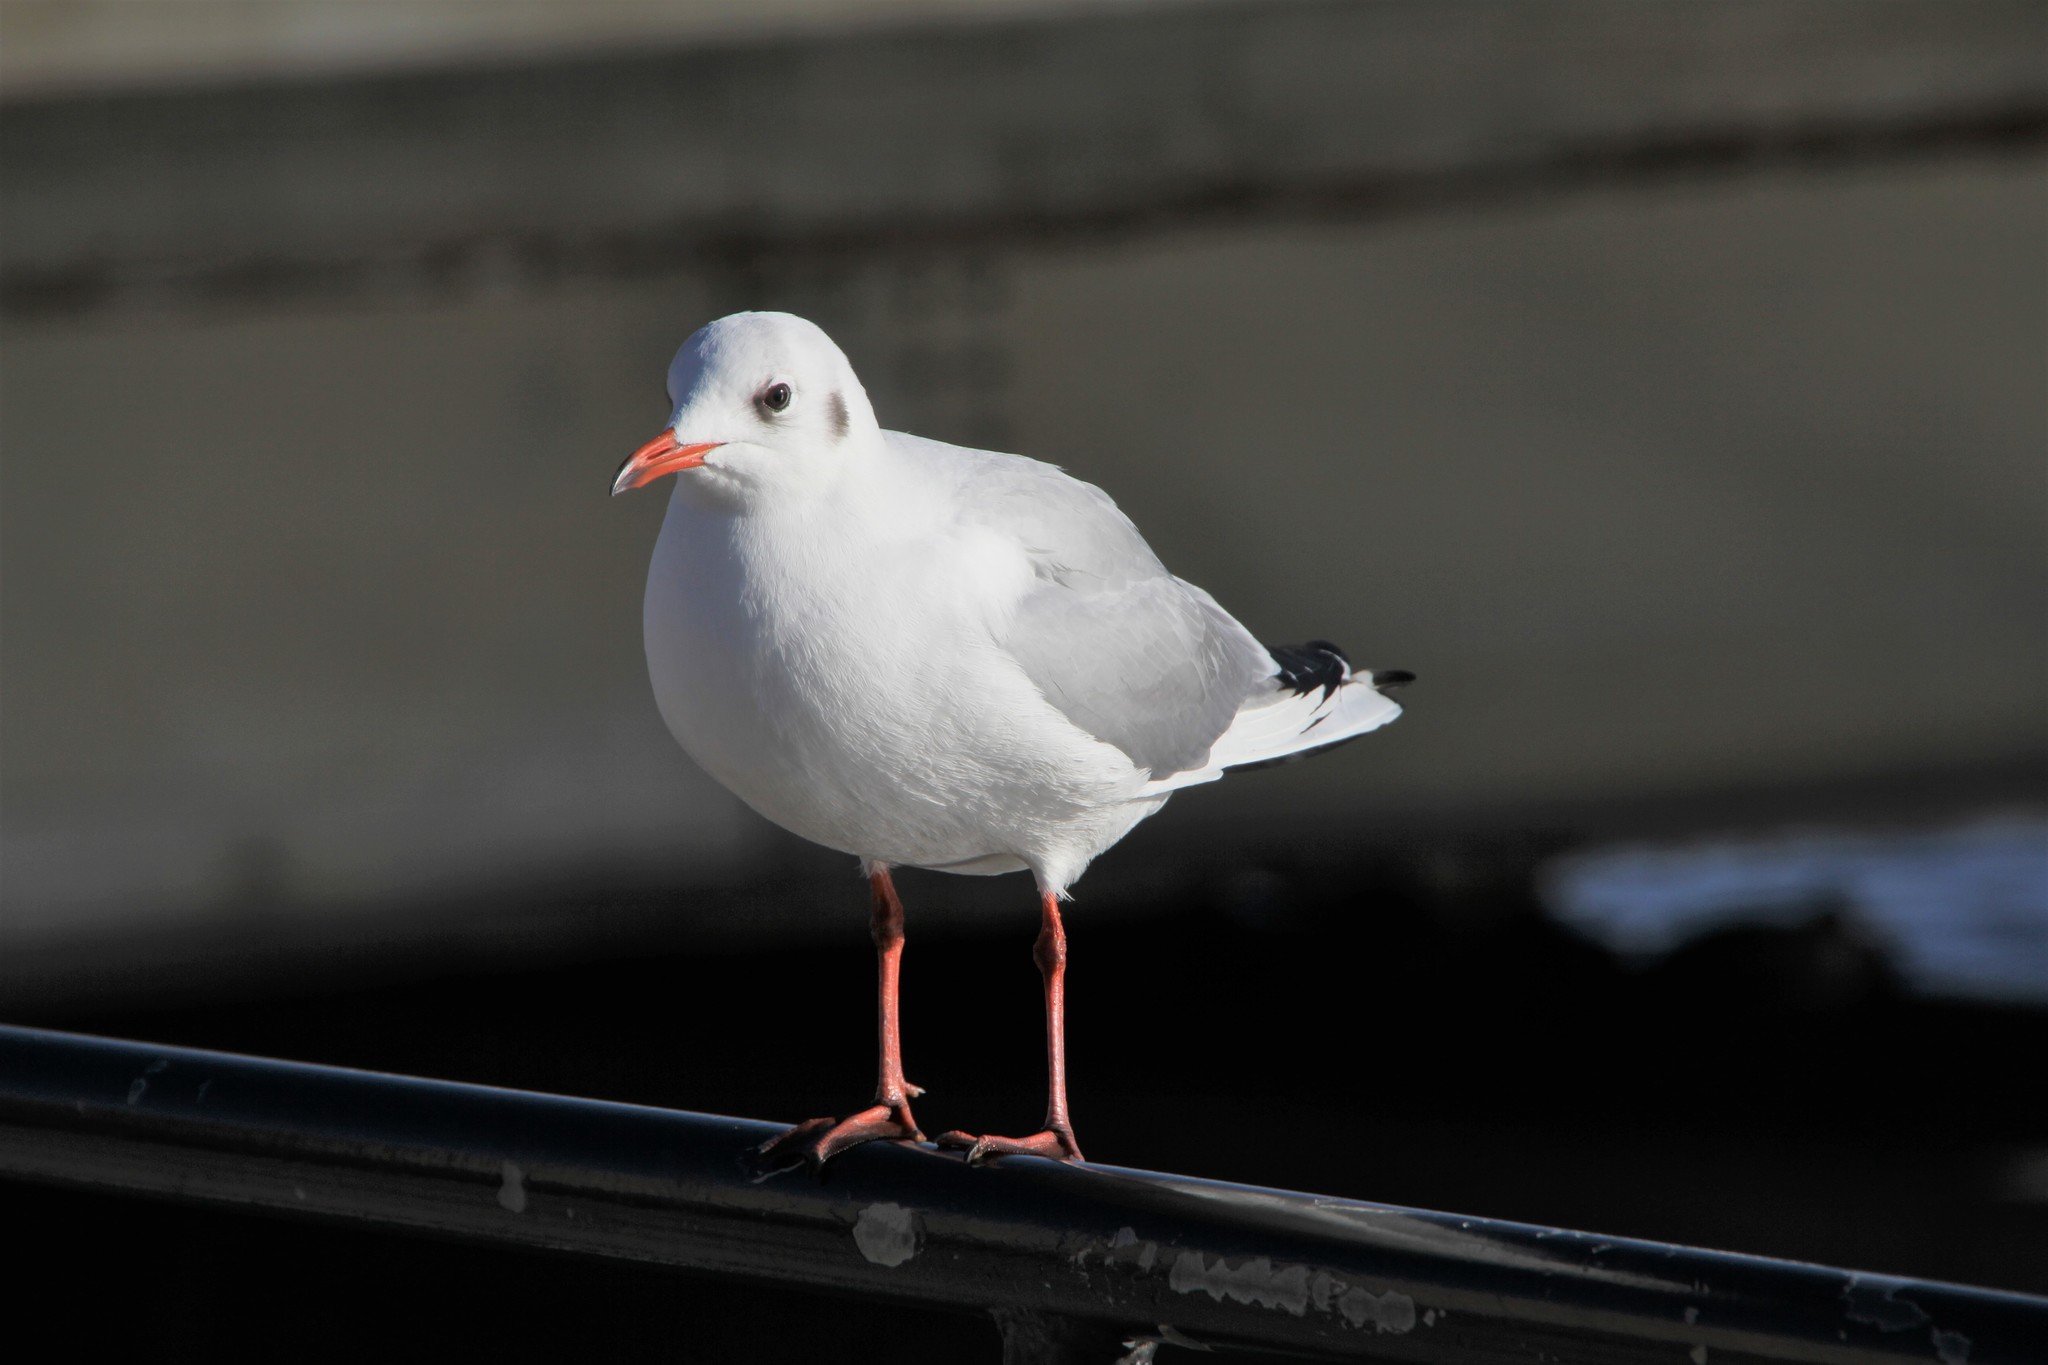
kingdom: Animalia
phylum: Chordata
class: Aves
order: Charadriiformes
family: Laridae
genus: Chroicocephalus
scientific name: Chroicocephalus ridibundus
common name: Black-headed gull
